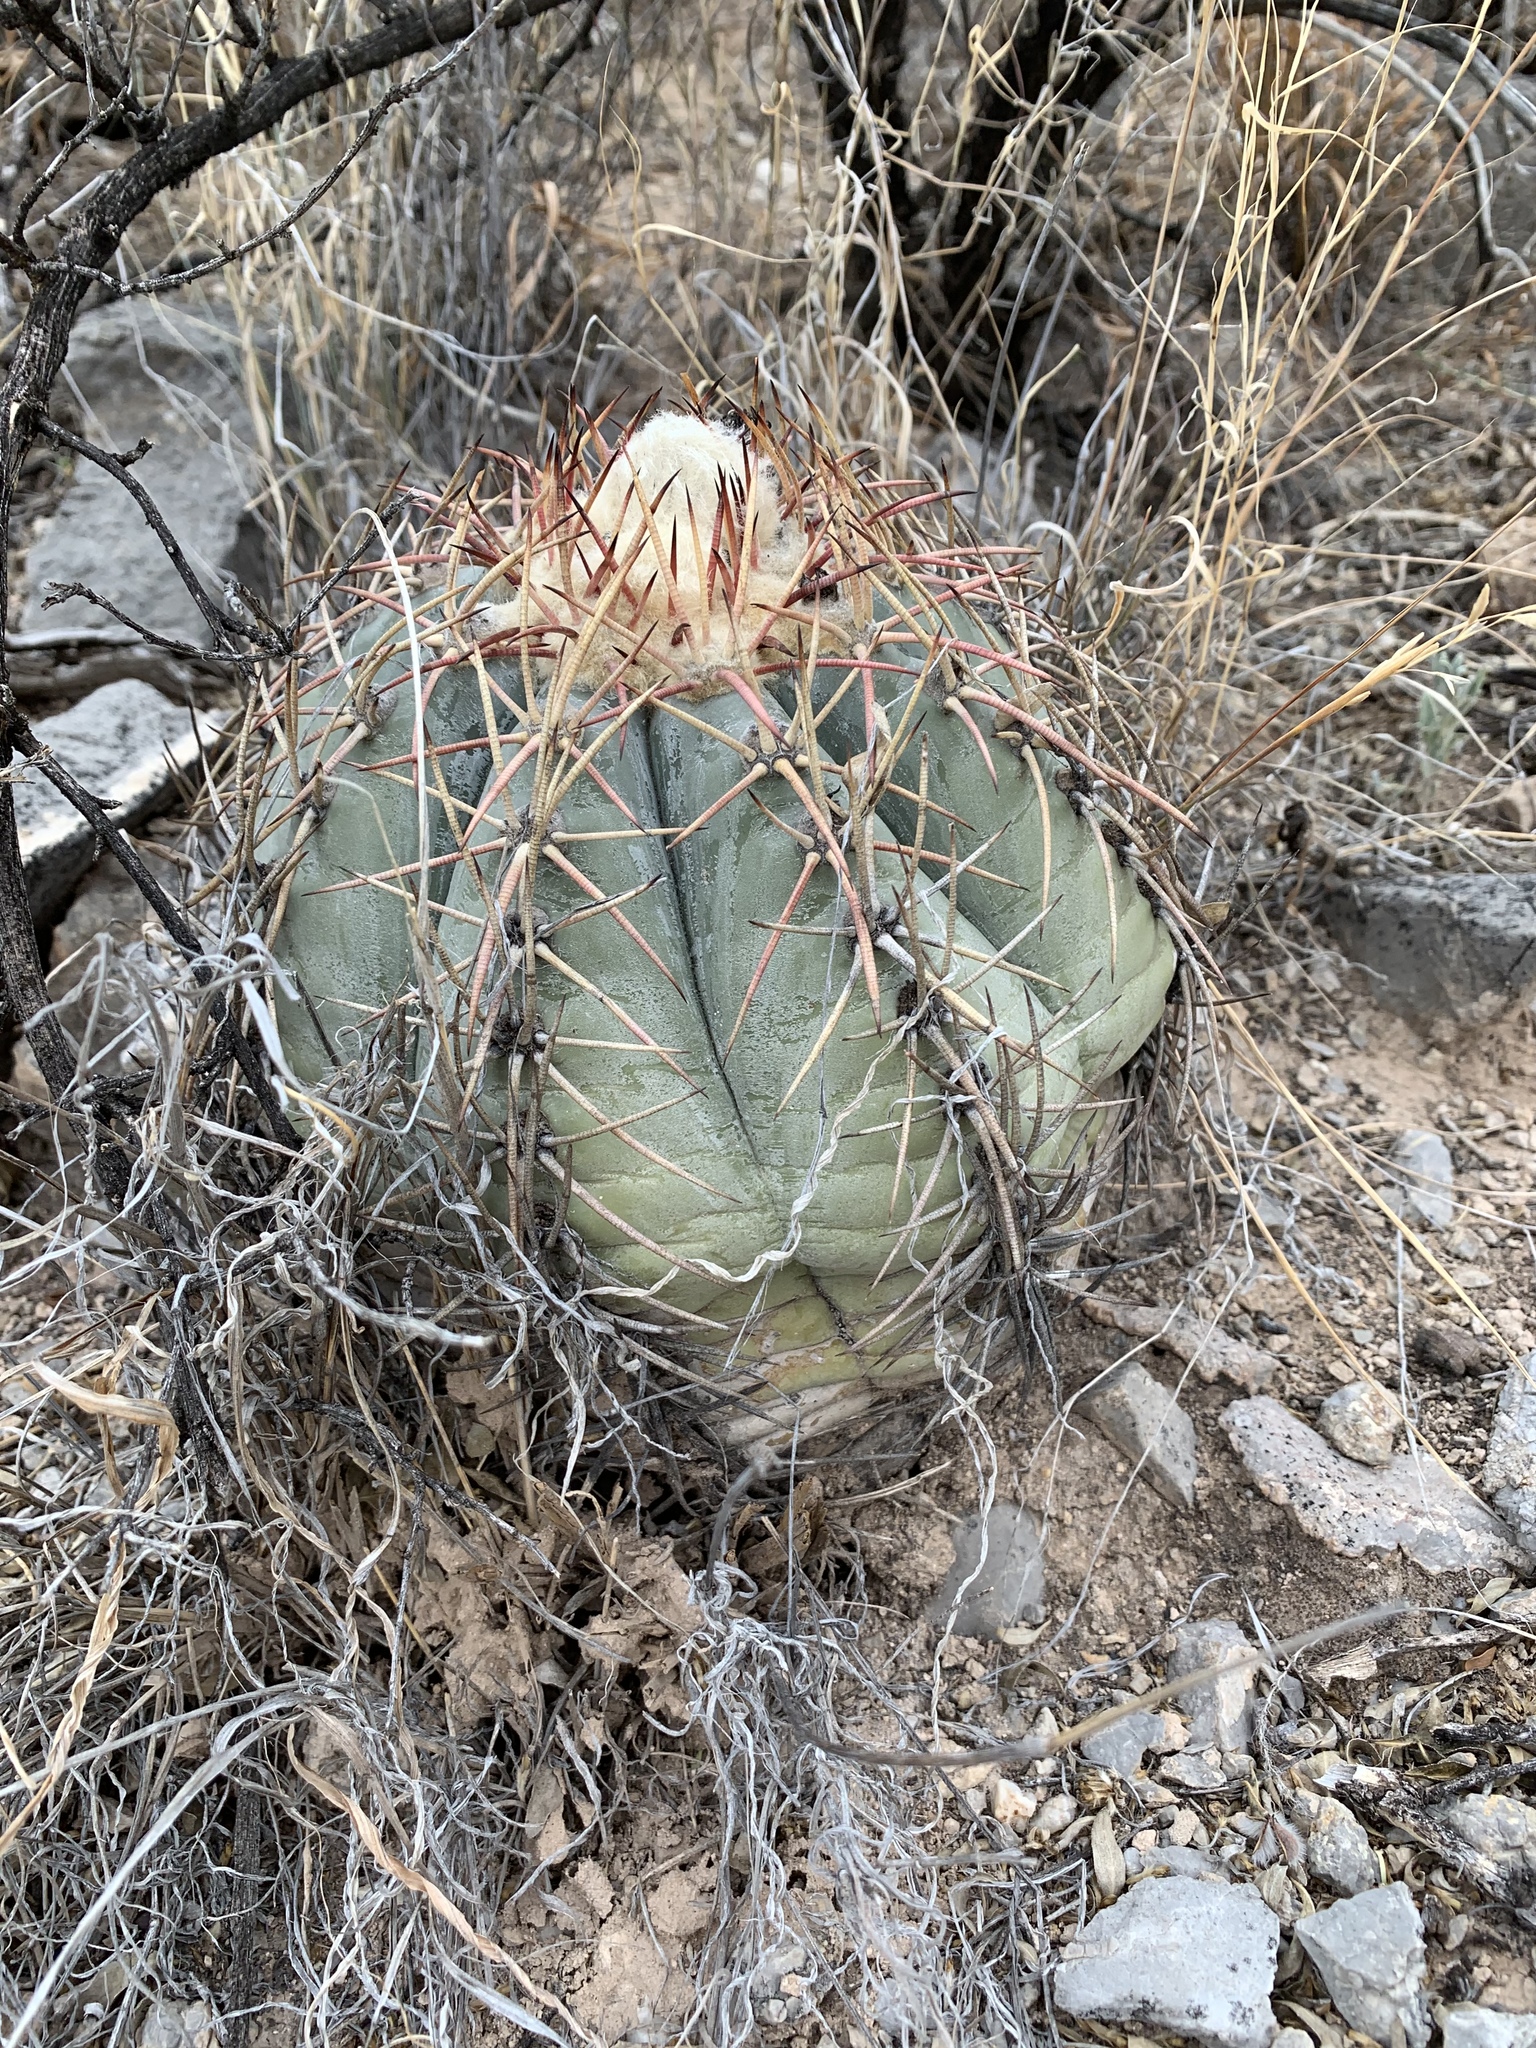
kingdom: Plantae
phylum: Tracheophyta
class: Magnoliopsida
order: Caryophyllales
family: Cactaceae
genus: Echinocactus
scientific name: Echinocactus horizonthalonius
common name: Devilshead
